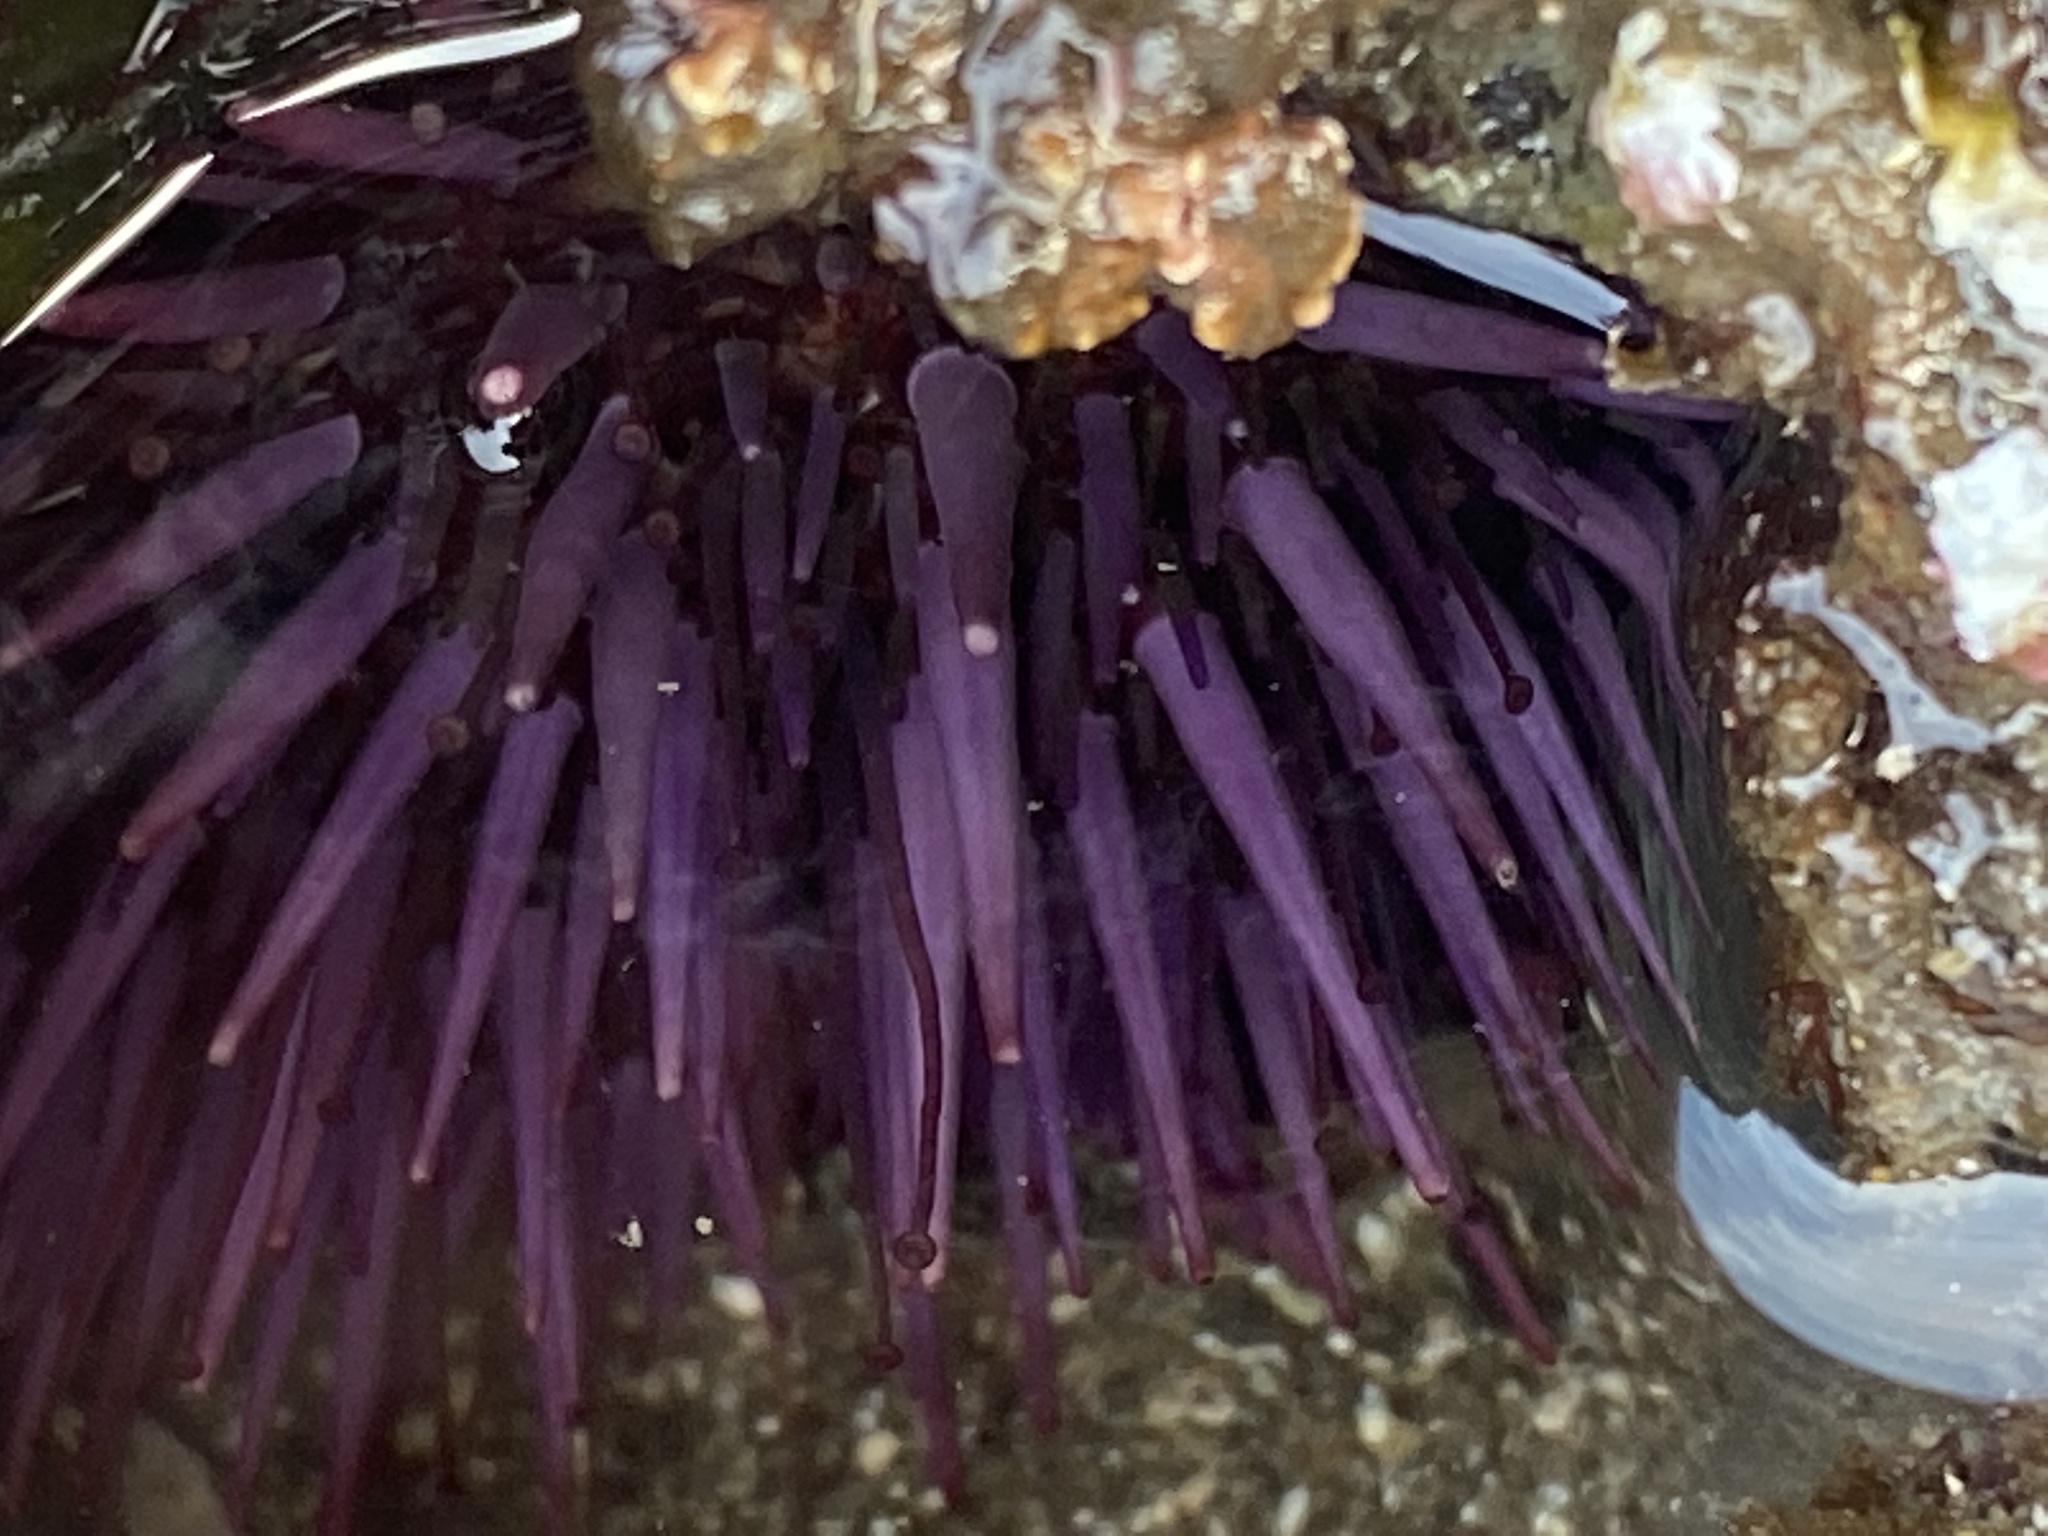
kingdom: Animalia
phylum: Echinodermata
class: Echinoidea
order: Camarodonta
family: Strongylocentrotidae
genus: Strongylocentrotus
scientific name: Strongylocentrotus purpuratus
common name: Purple sea urchin
